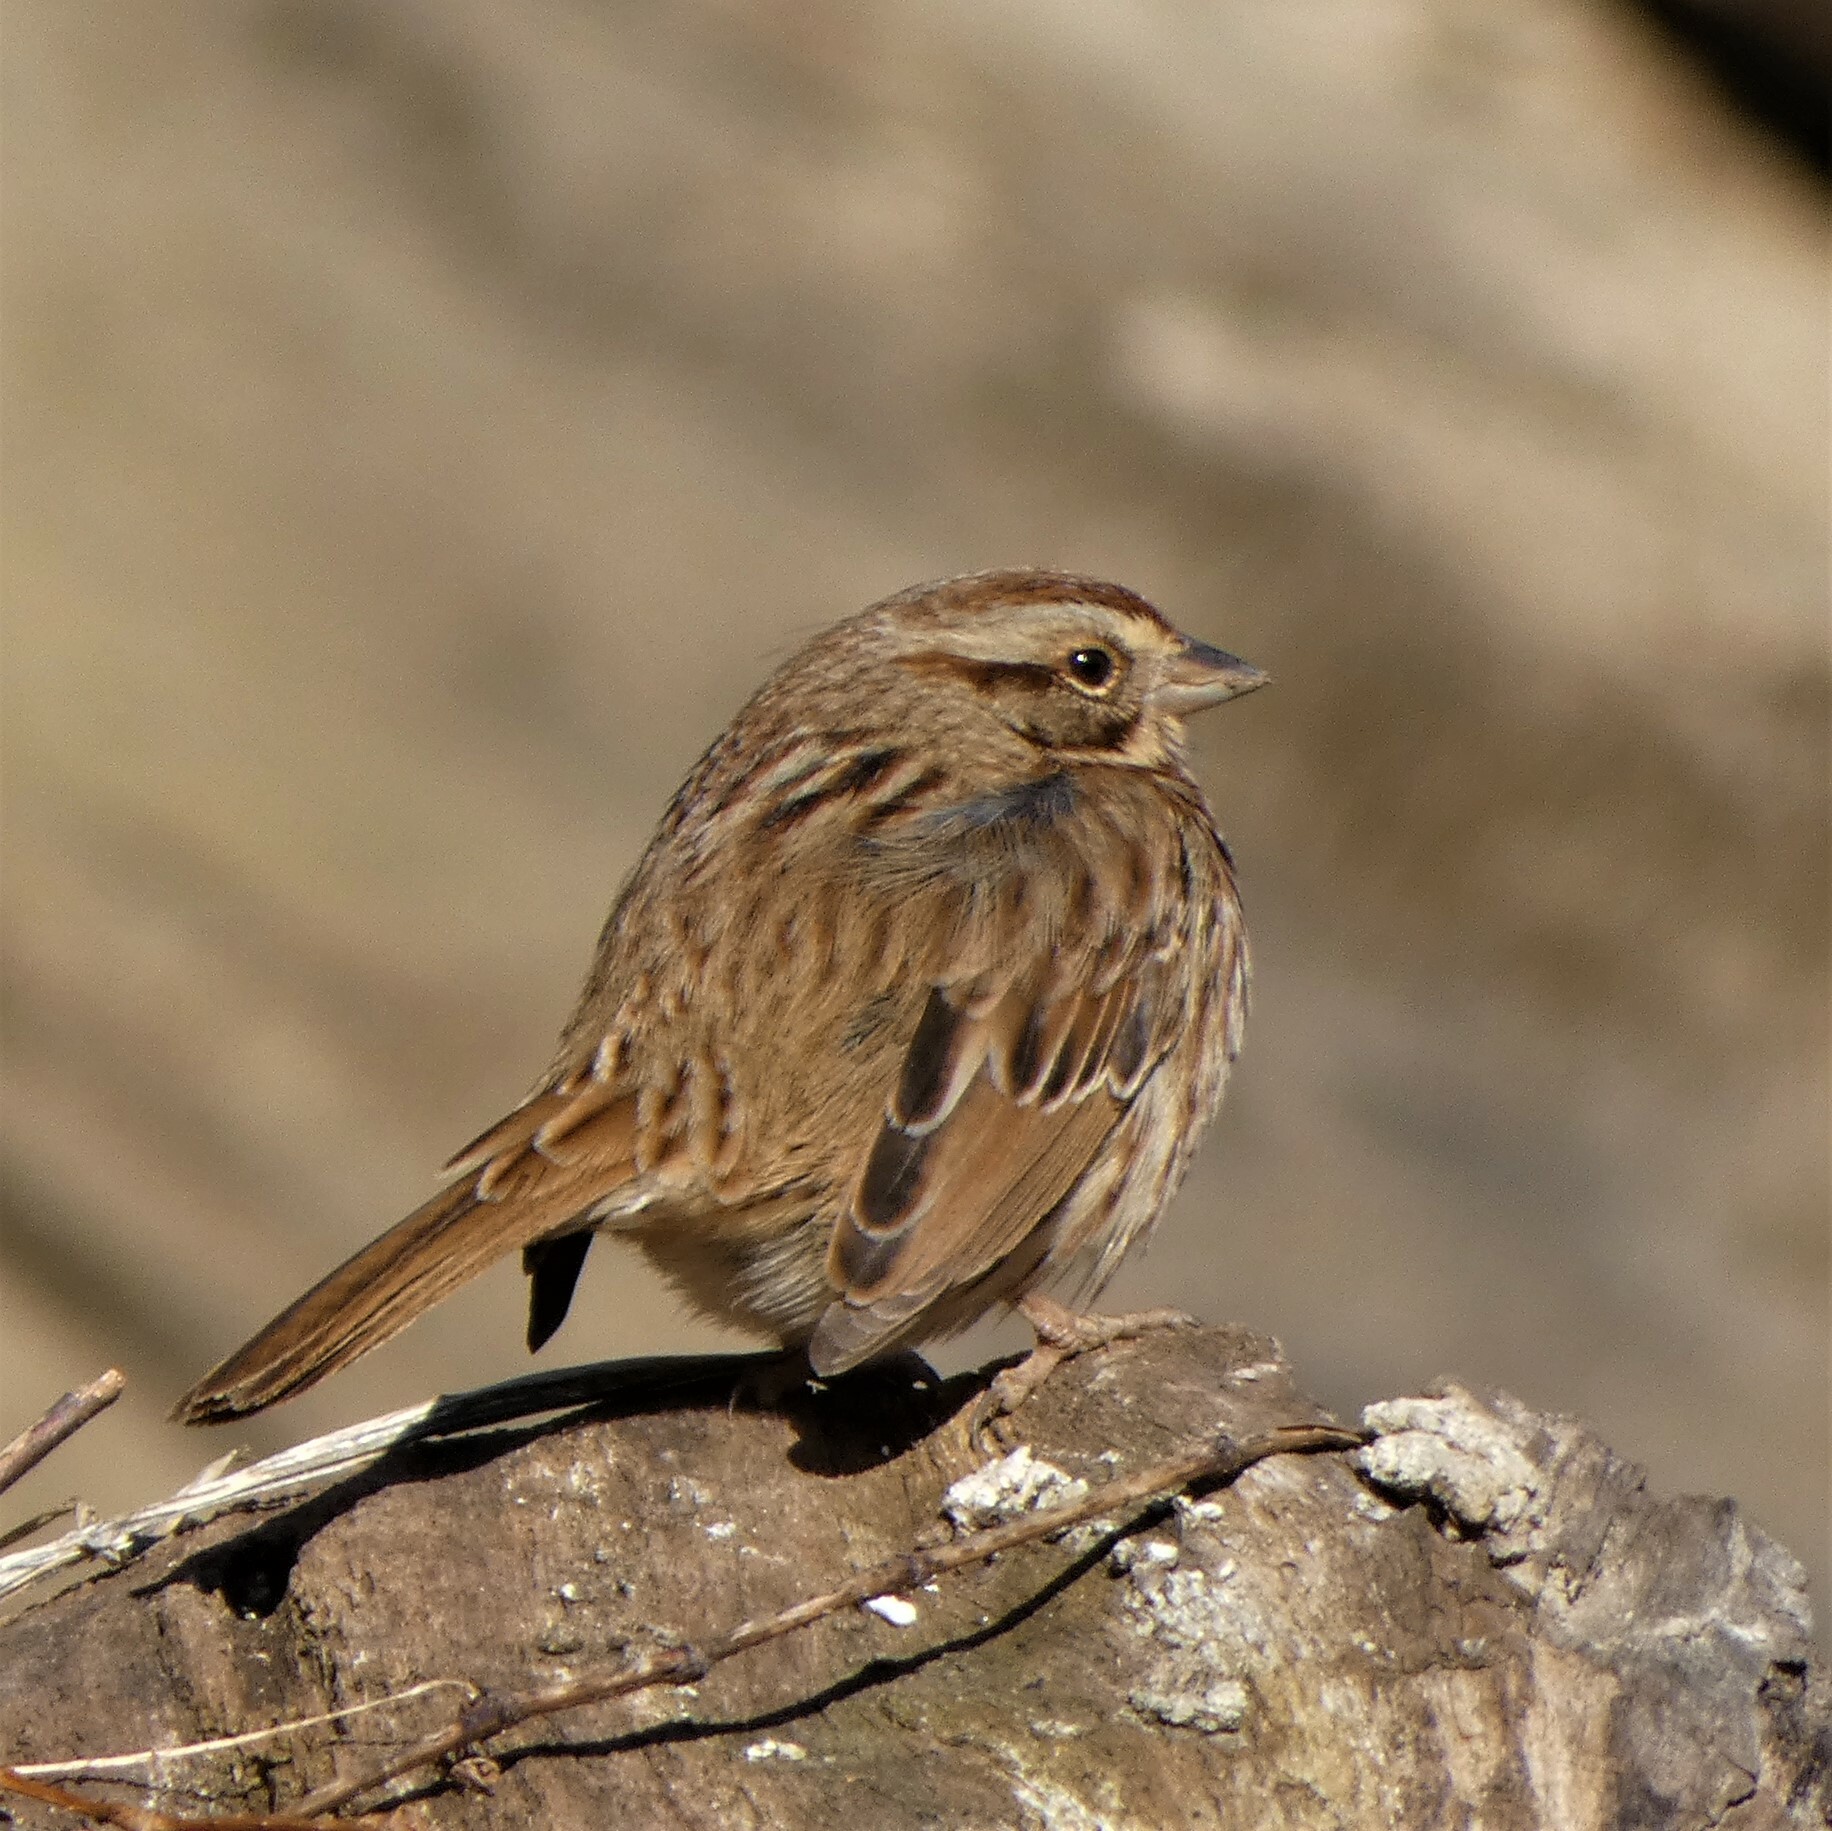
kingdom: Animalia
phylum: Chordata
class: Aves
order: Passeriformes
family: Passerellidae
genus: Melospiza
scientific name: Melospiza melodia
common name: Song sparrow
